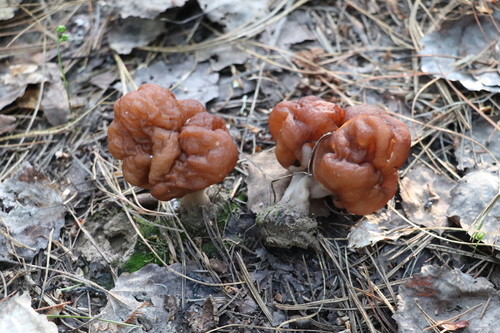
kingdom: Fungi
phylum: Ascomycota
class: Pezizomycetes
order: Pezizales
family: Discinaceae
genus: Gyromitra
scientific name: Gyromitra esculenta
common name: False morel
